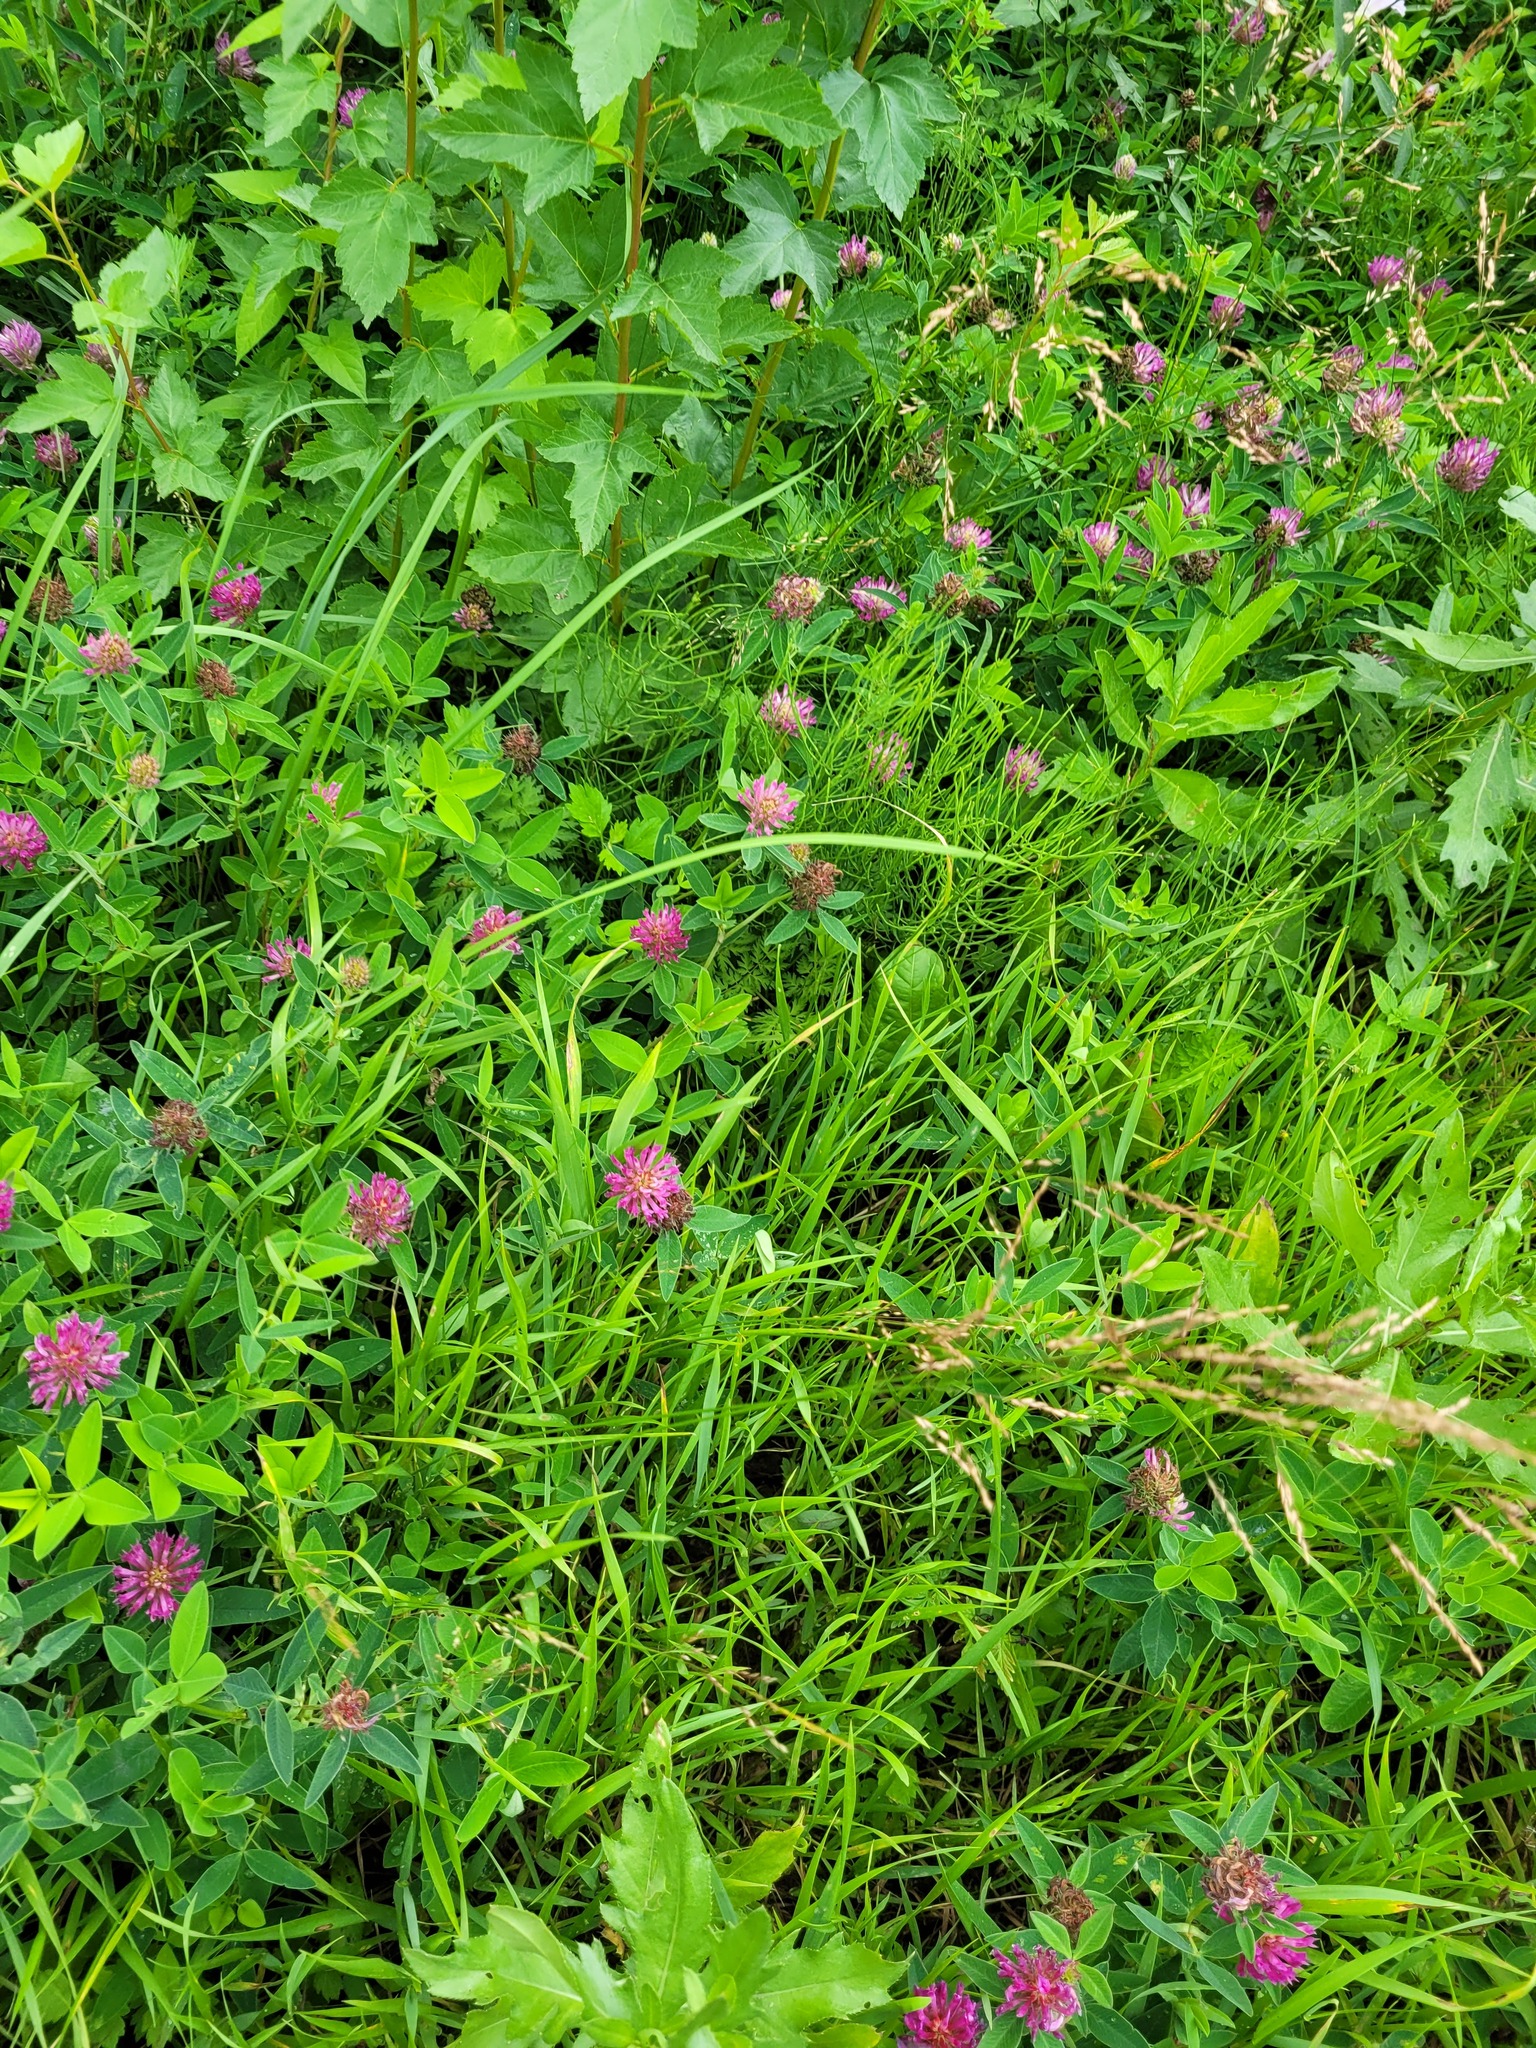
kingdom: Plantae
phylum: Tracheophyta
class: Magnoliopsida
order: Fabales
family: Fabaceae
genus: Trifolium
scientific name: Trifolium medium
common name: Zigzag clover
